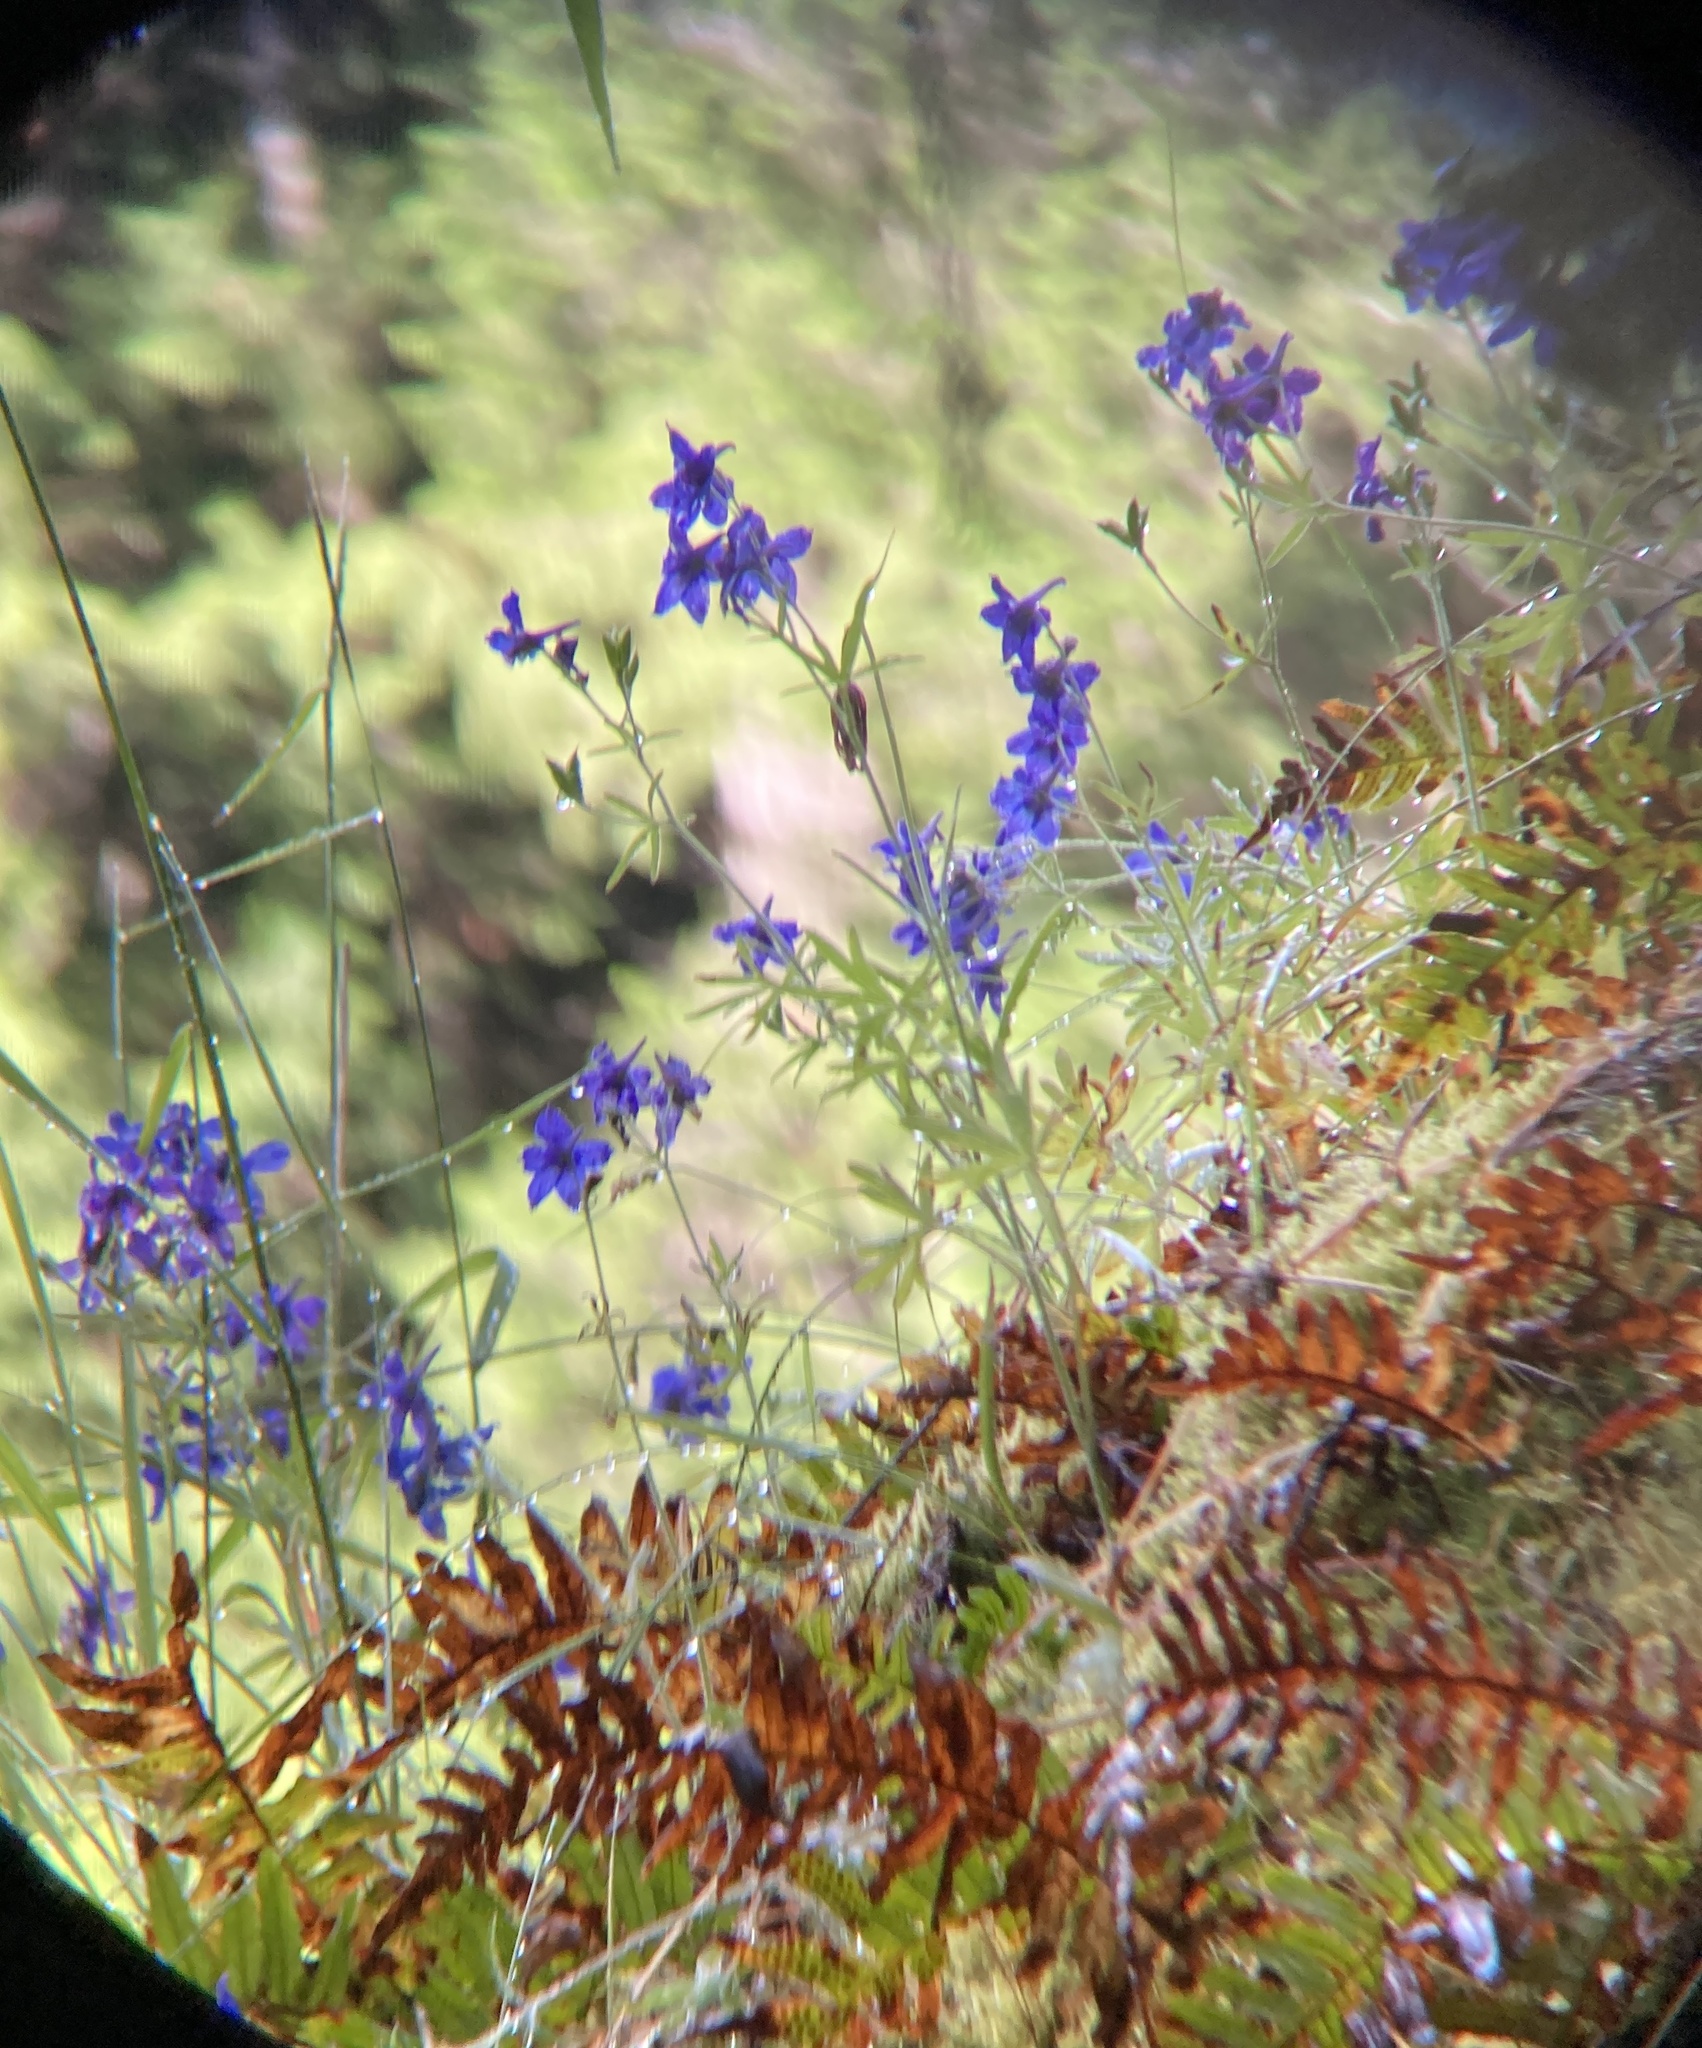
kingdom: Plantae
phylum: Tracheophyta
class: Magnoliopsida
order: Ranunculales
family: Ranunculaceae
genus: Delphinium
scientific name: Delphinium menziesii
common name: Menzies's larkspur
